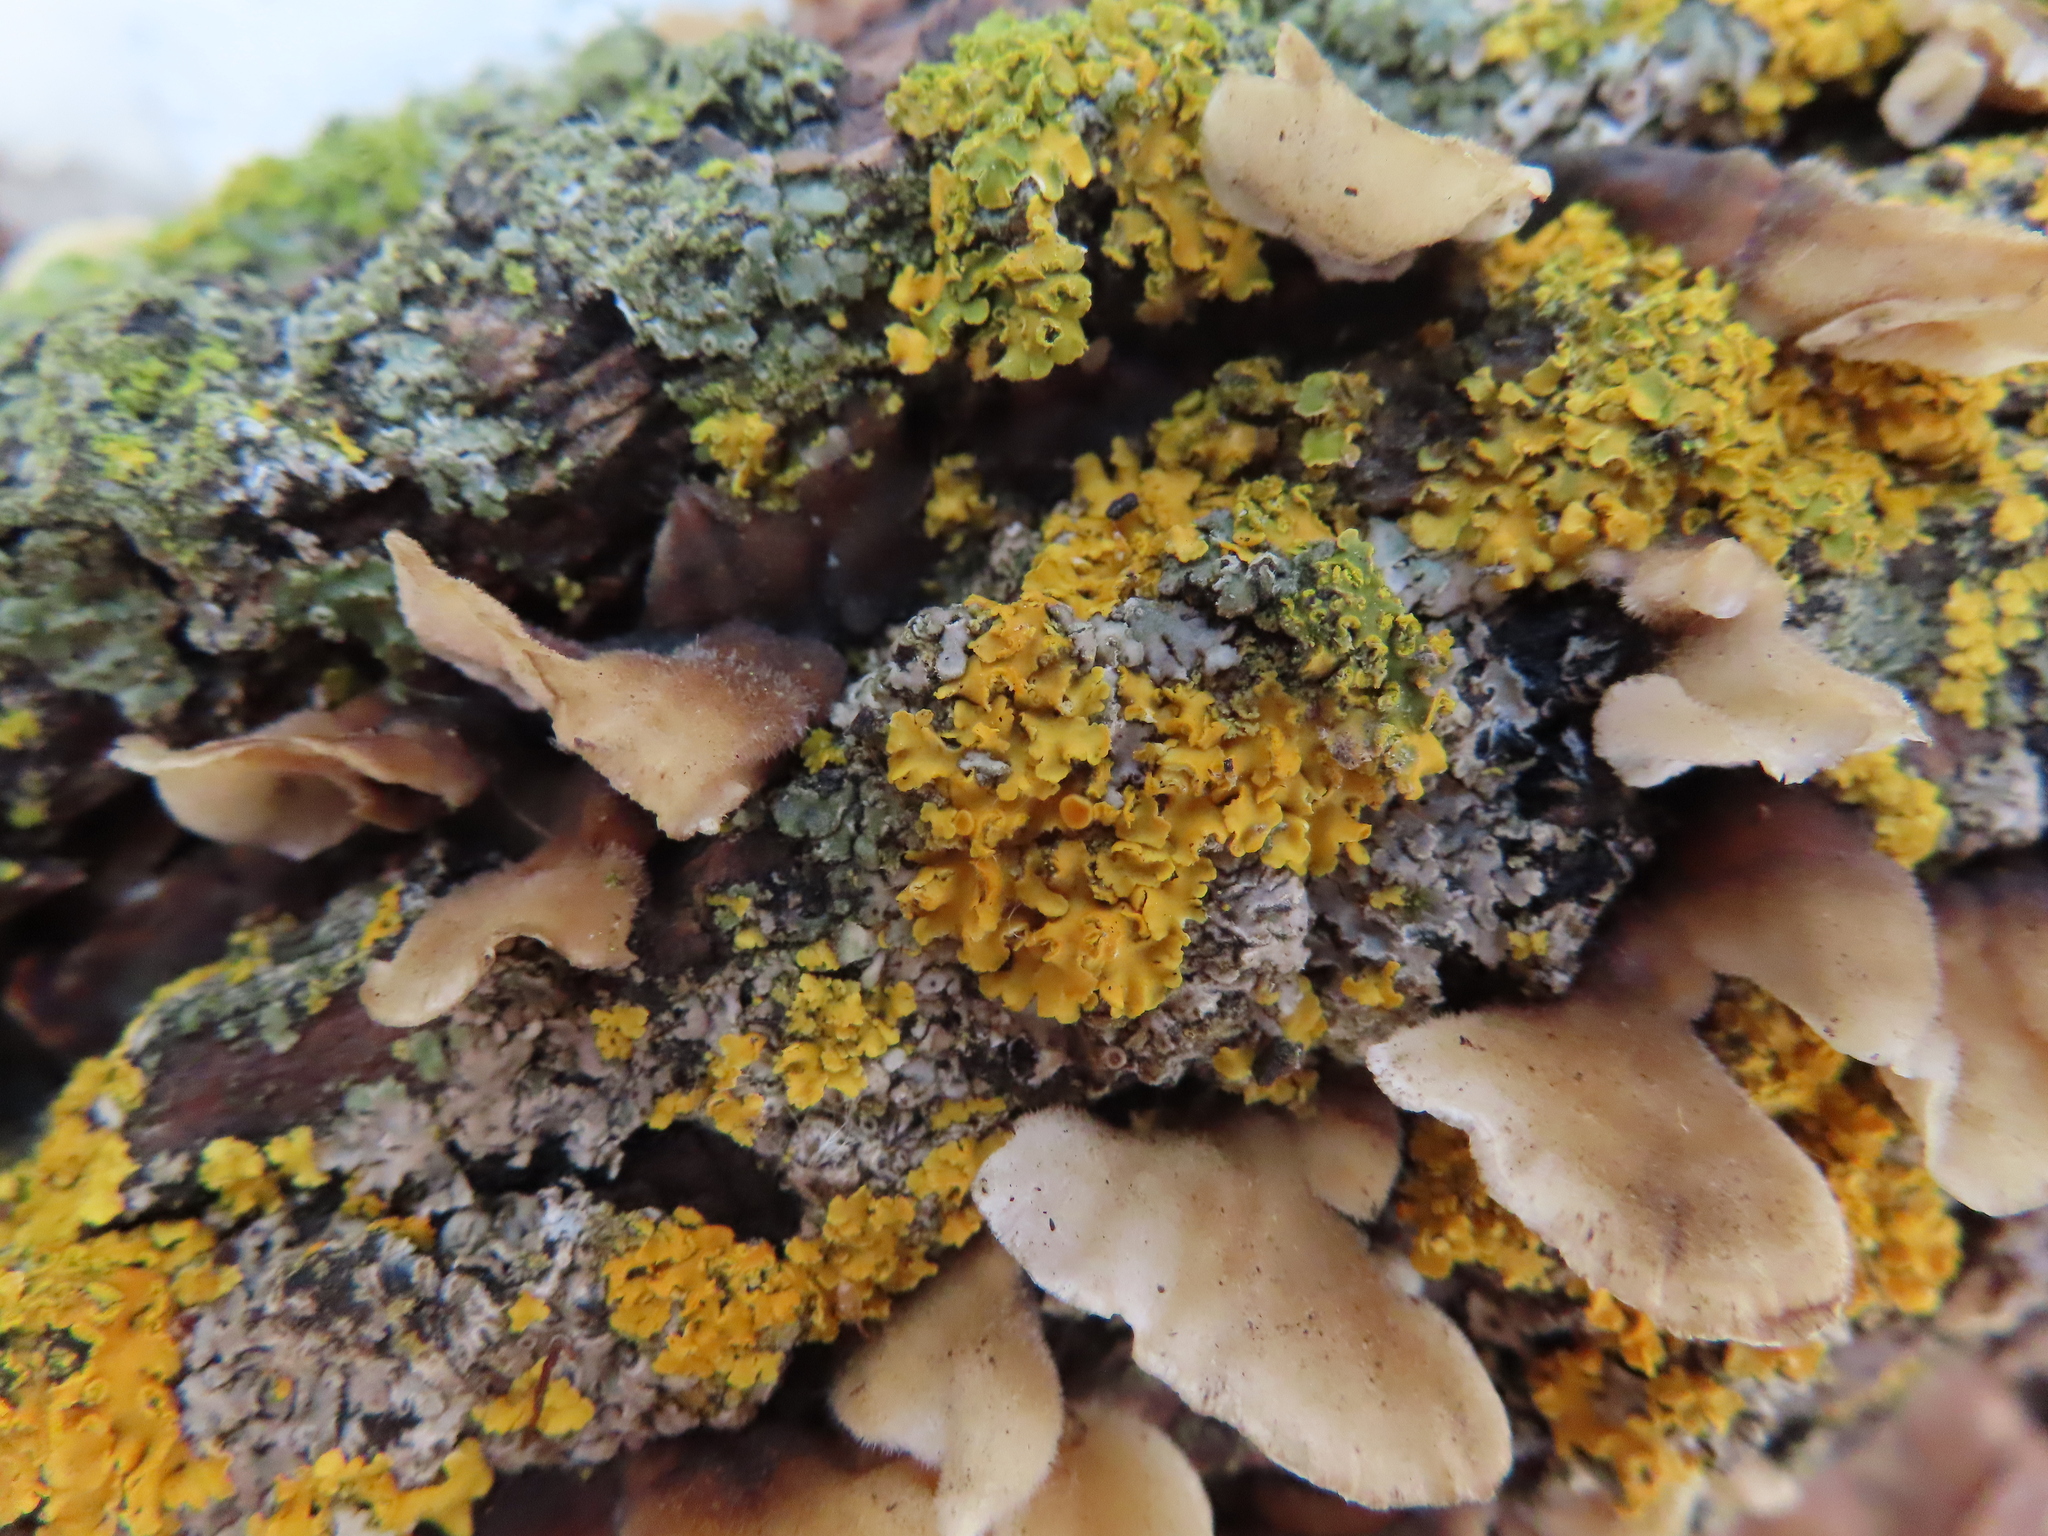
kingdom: Fungi
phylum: Ascomycota
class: Lecanoromycetes
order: Teloschistales
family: Teloschistaceae
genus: Oxneria
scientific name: Oxneria fallax
